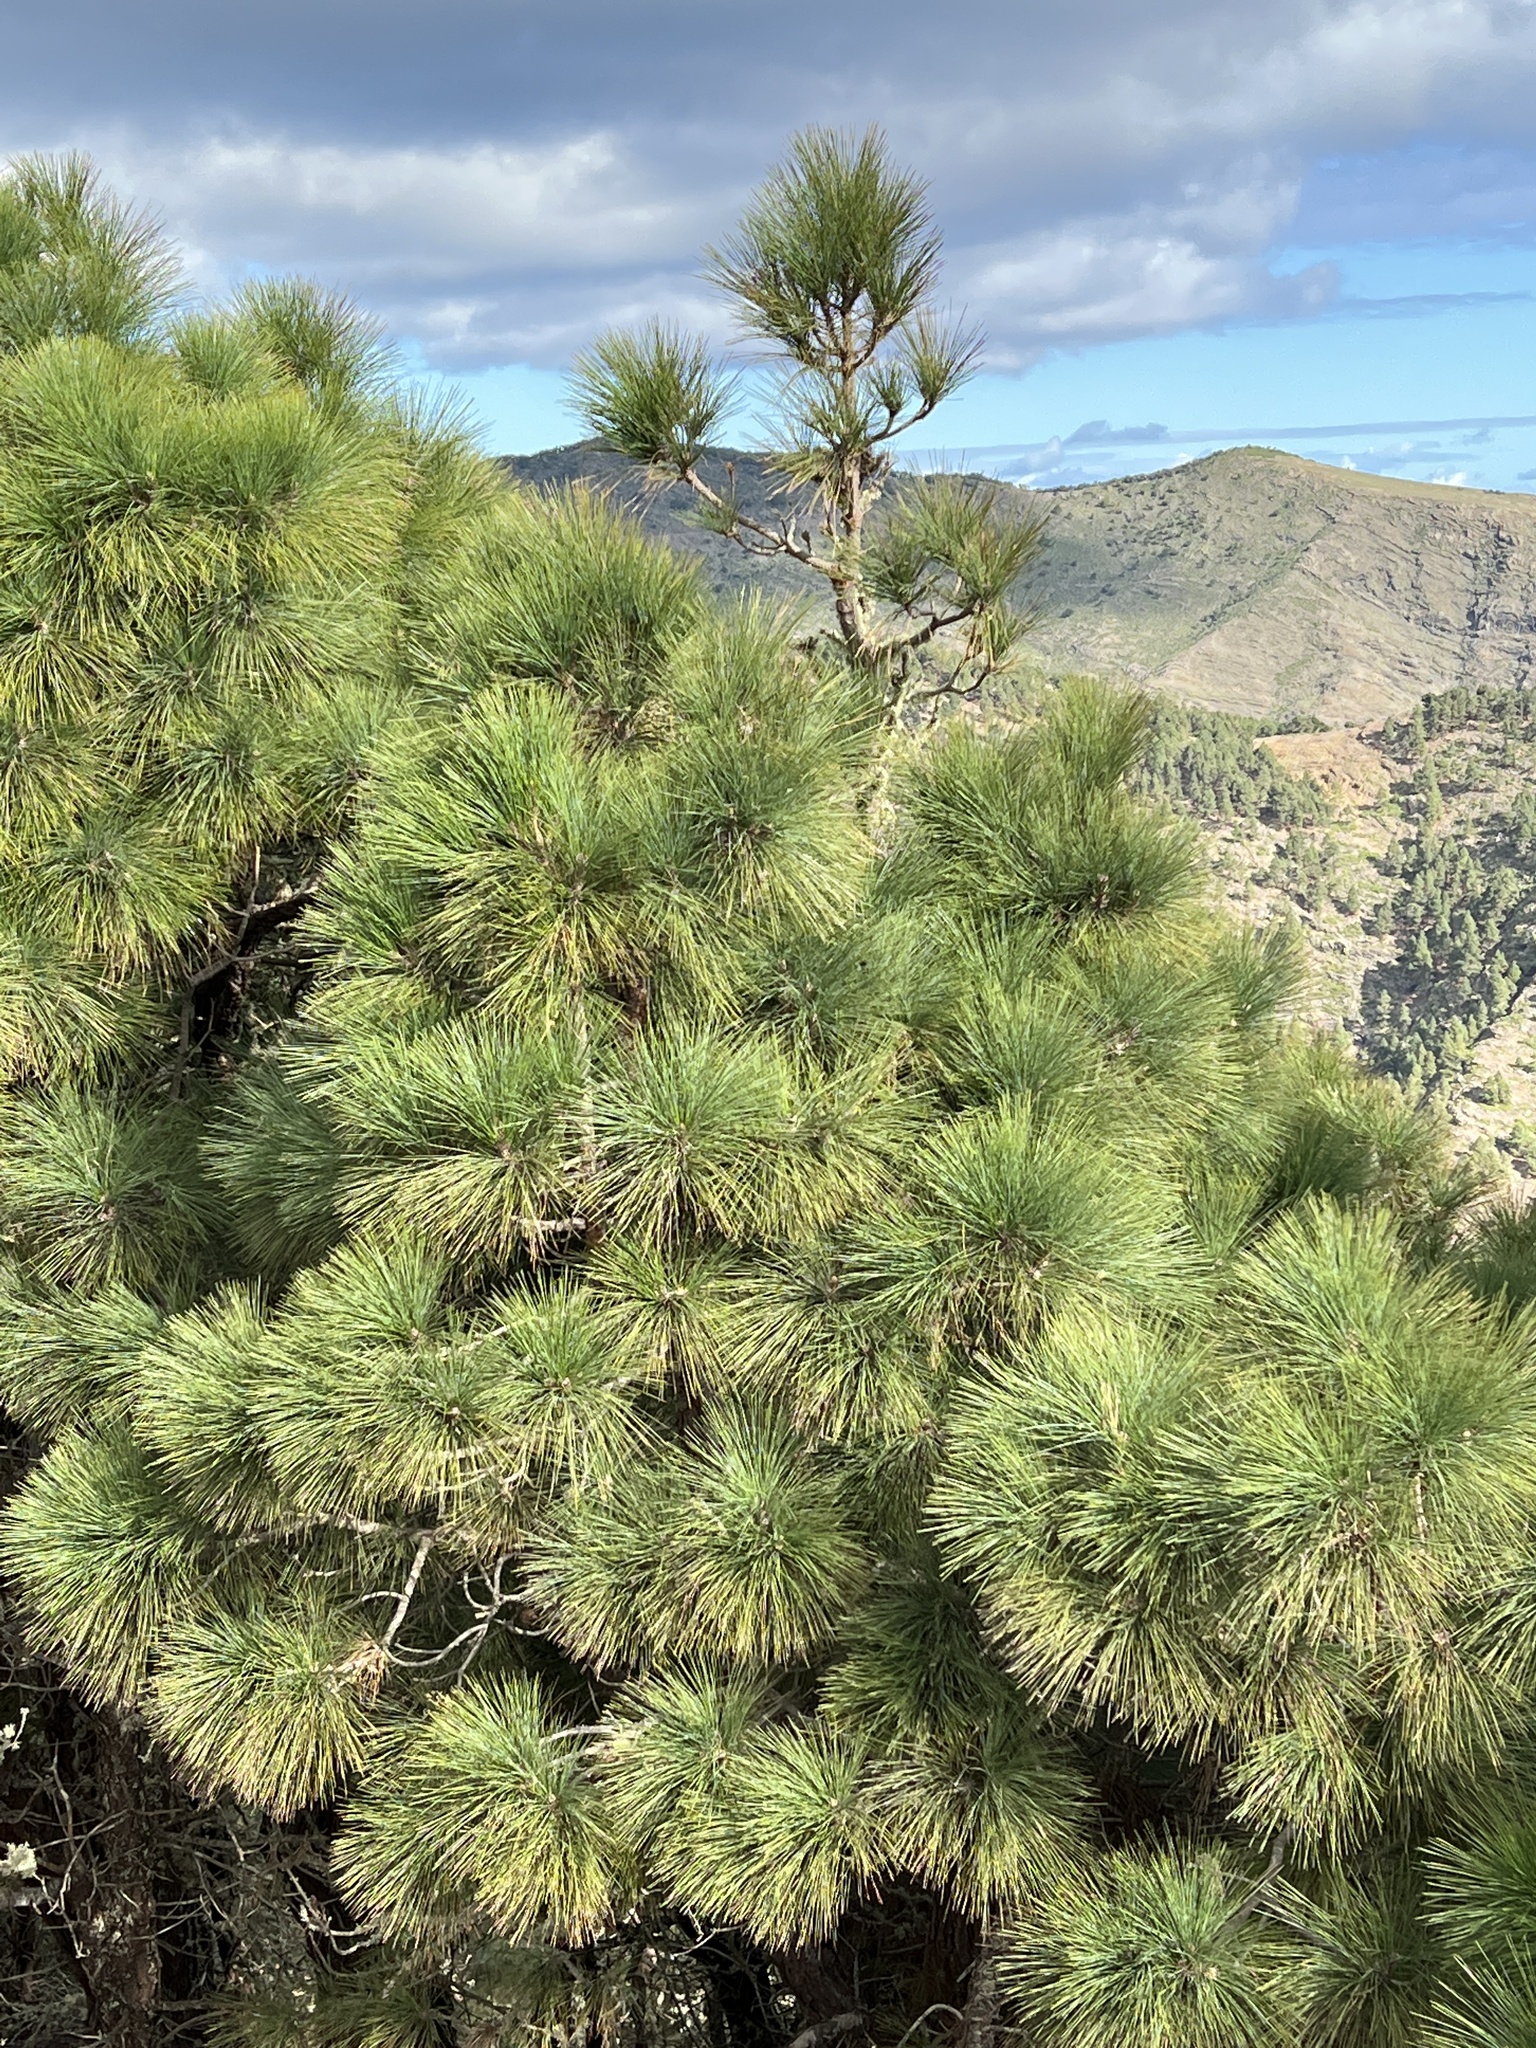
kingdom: Plantae
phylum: Tracheophyta
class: Pinopsida
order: Pinales
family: Pinaceae
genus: Pinus
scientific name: Pinus canariensis
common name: Canary islands pine
